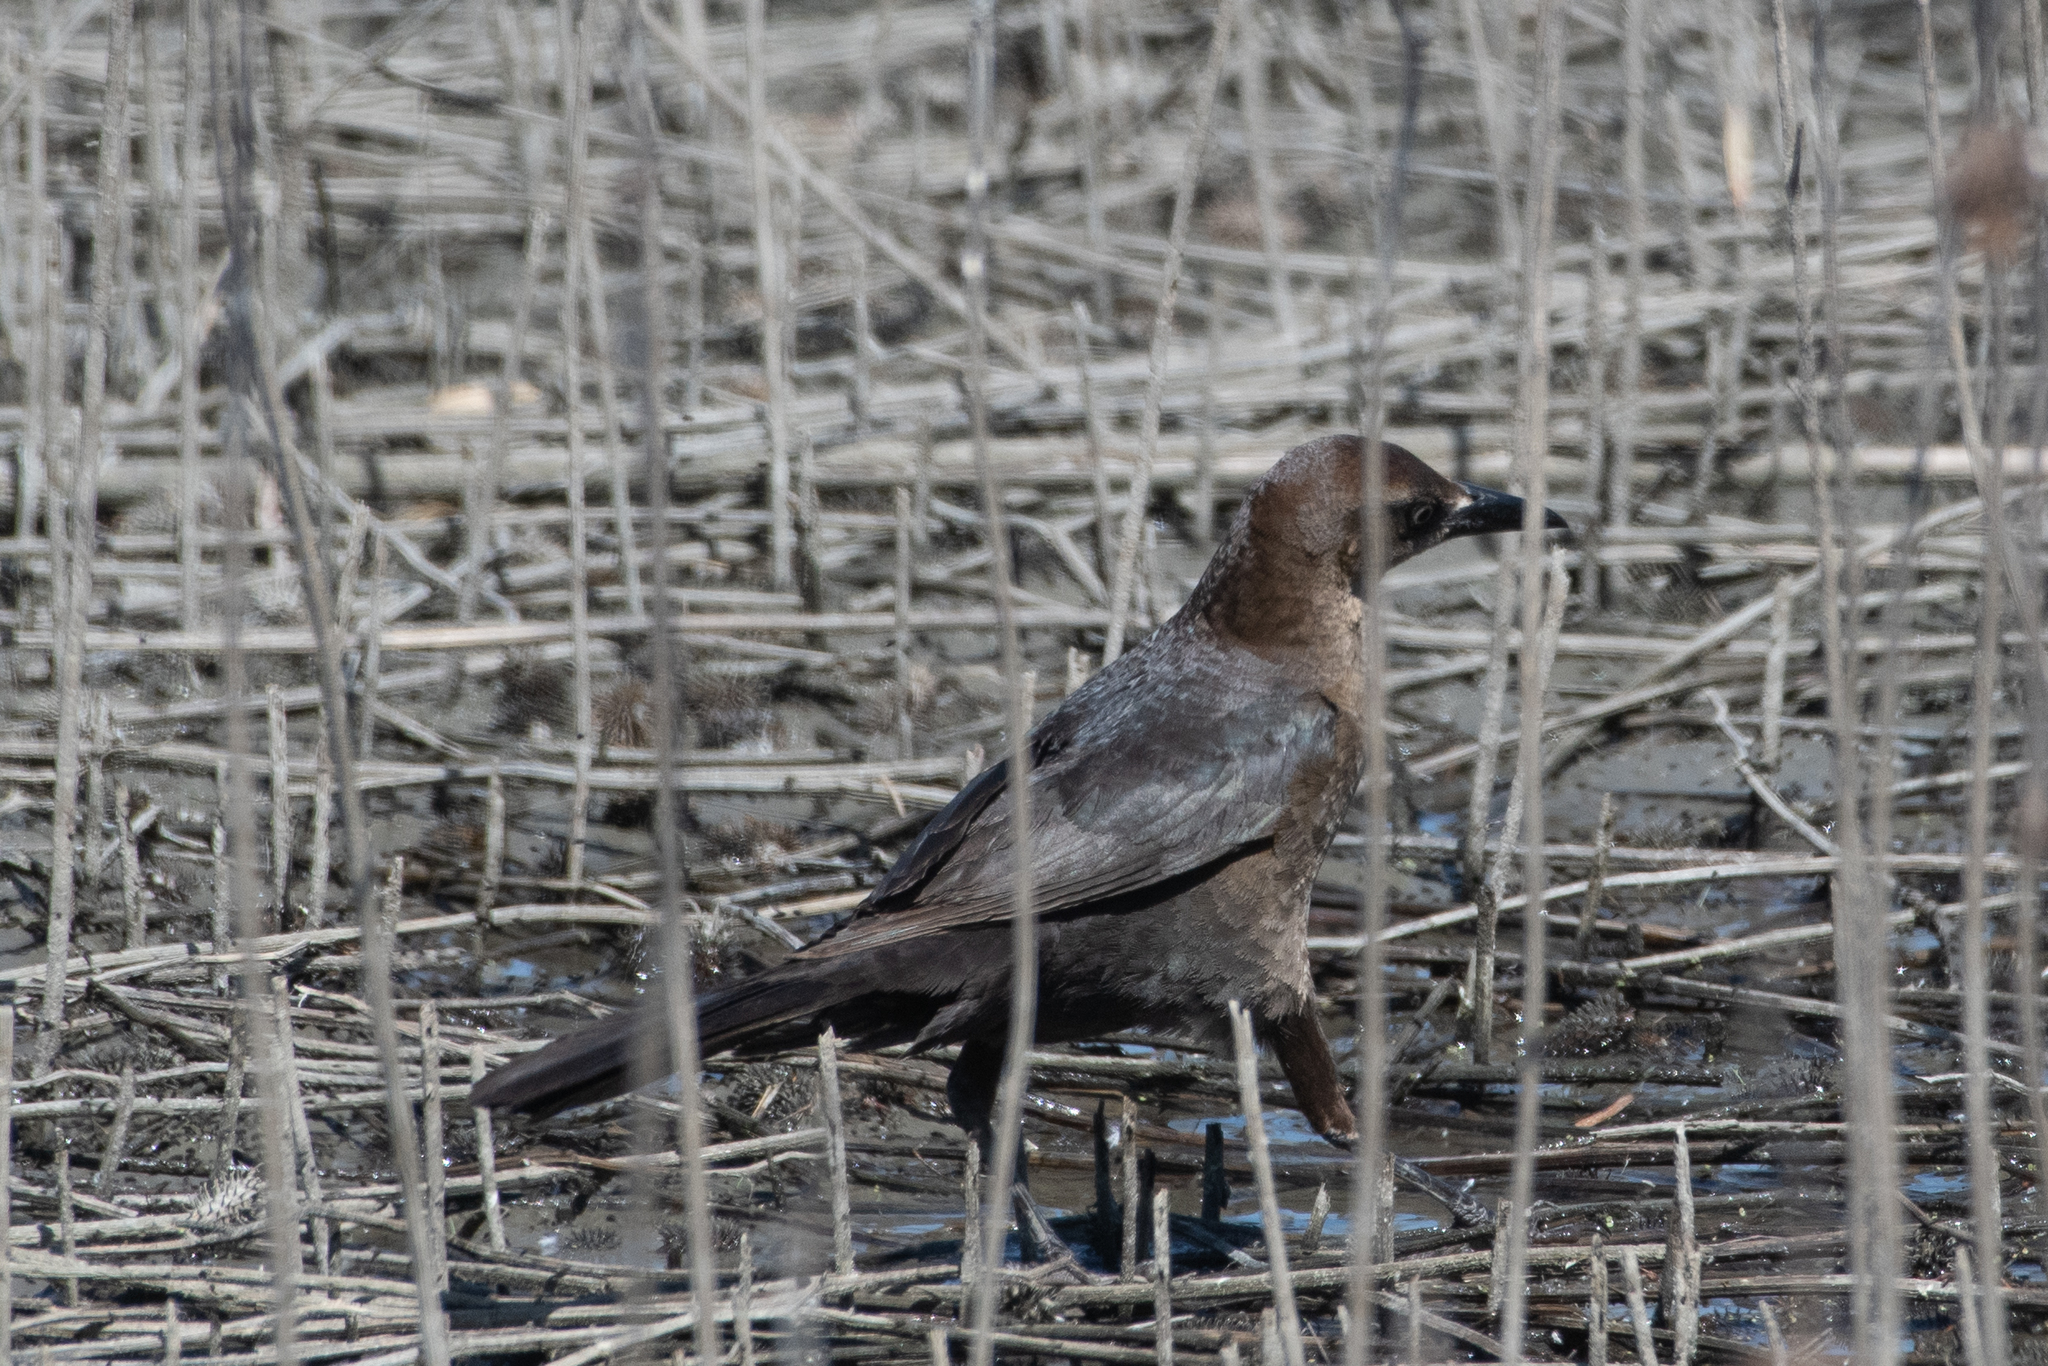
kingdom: Animalia
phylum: Chordata
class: Aves
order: Passeriformes
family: Icteridae
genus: Quiscalus
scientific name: Quiscalus mexicanus
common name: Great-tailed grackle
